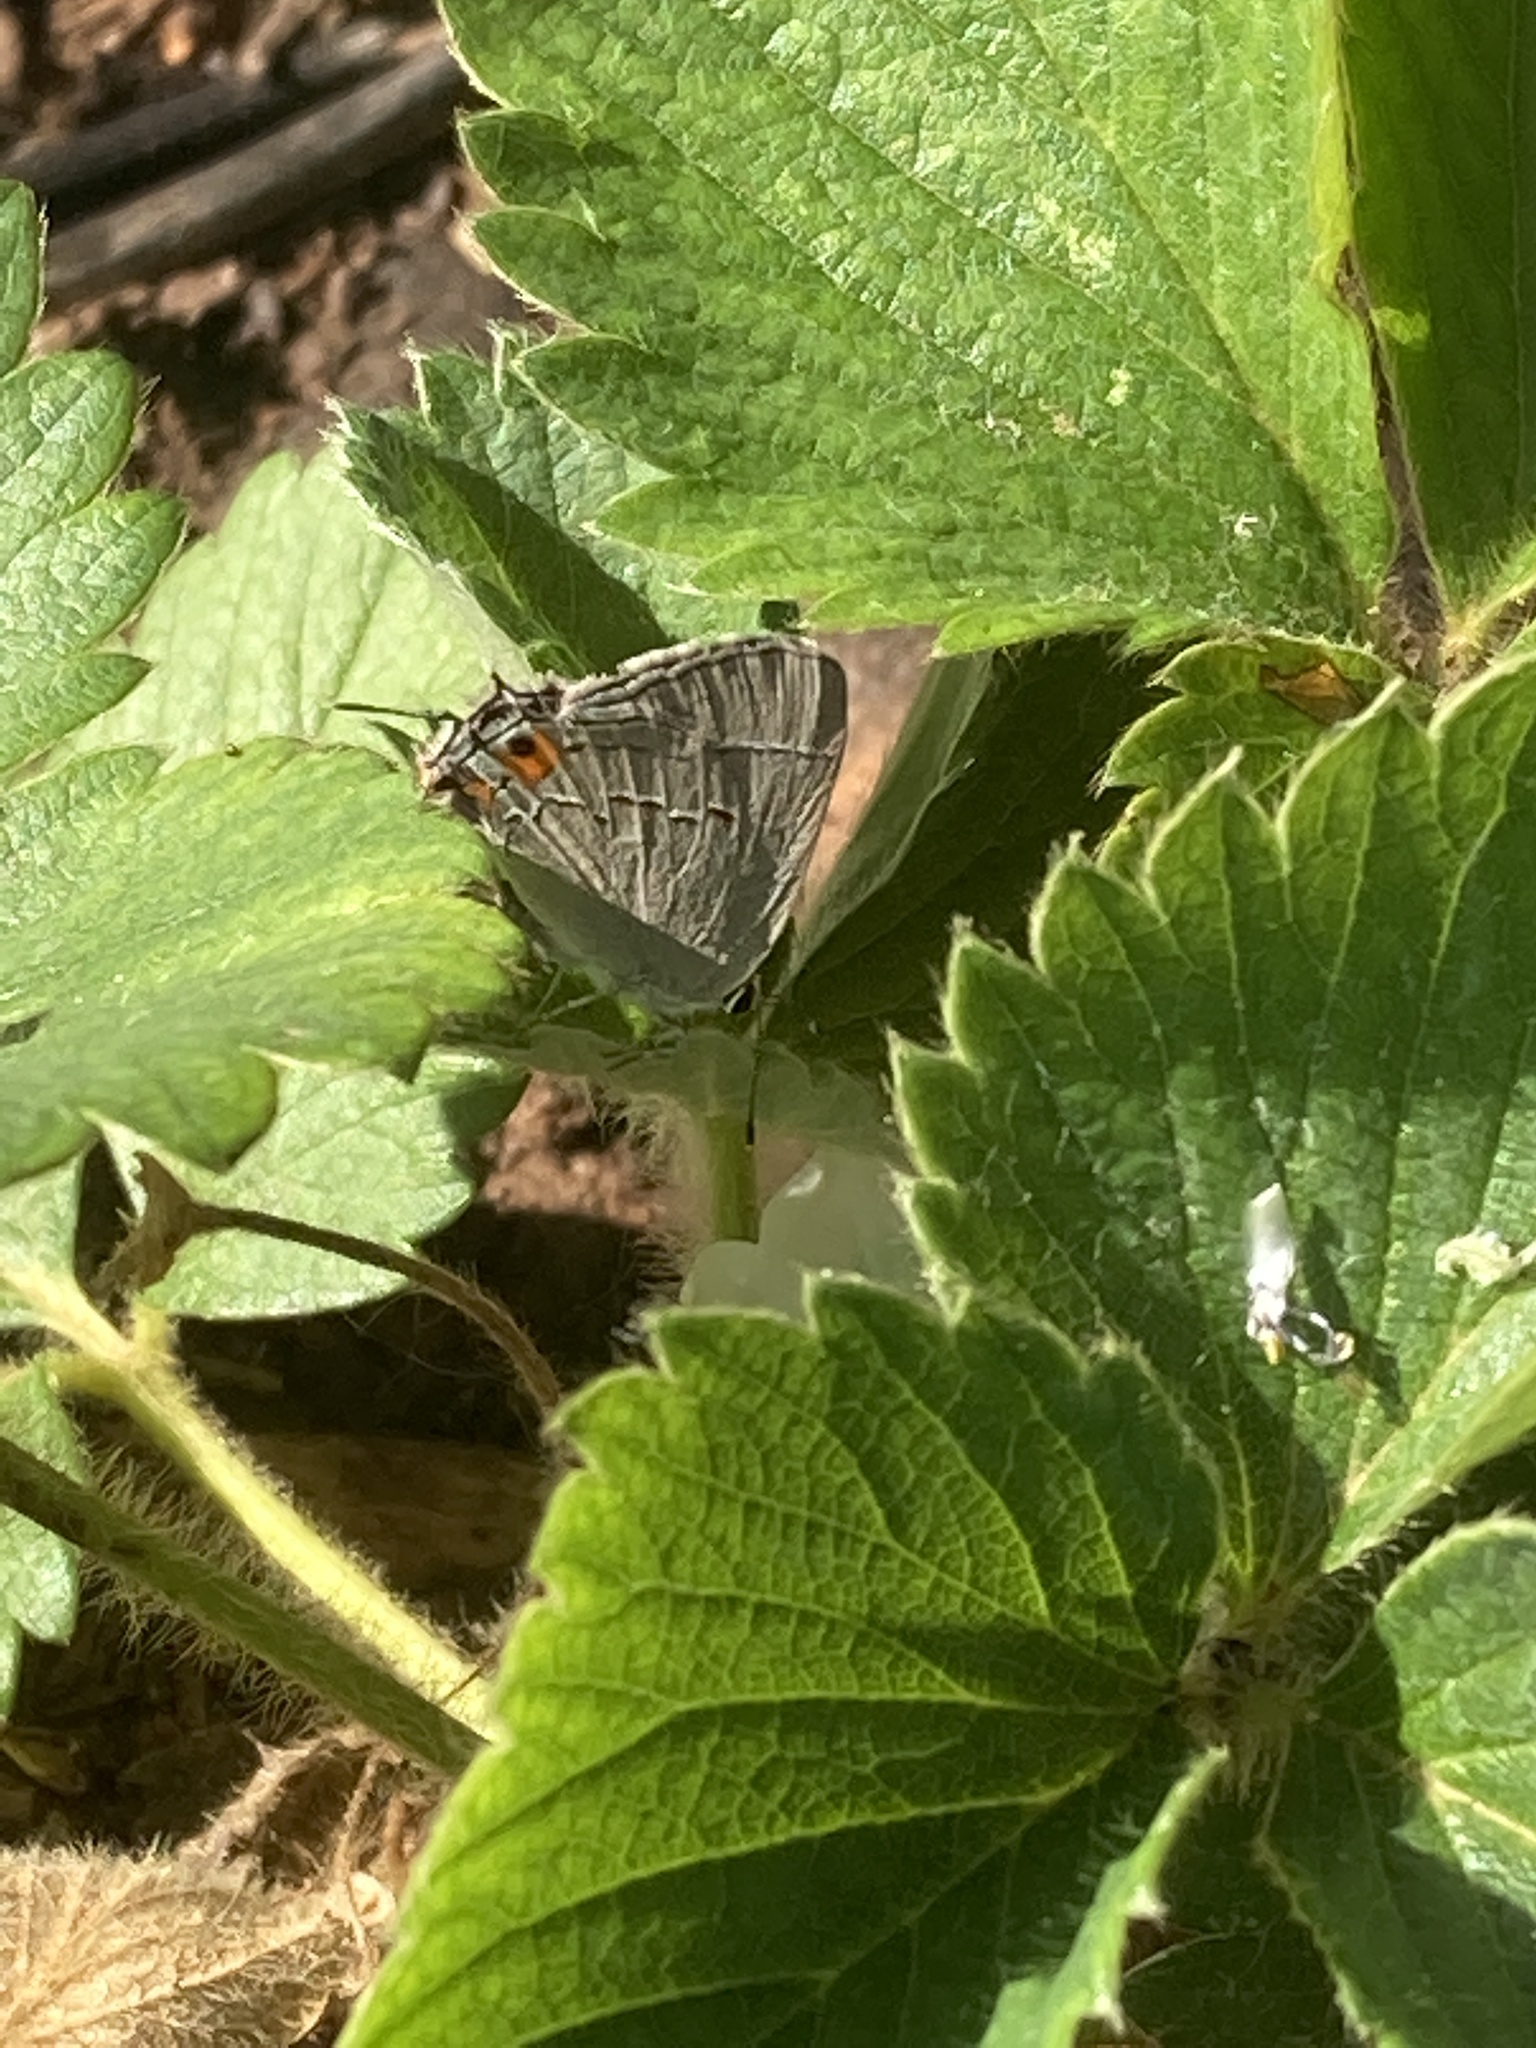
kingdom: Animalia
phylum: Arthropoda
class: Insecta
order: Lepidoptera
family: Lycaenidae
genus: Strymon
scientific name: Strymon melinus
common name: Gray hairstreak
